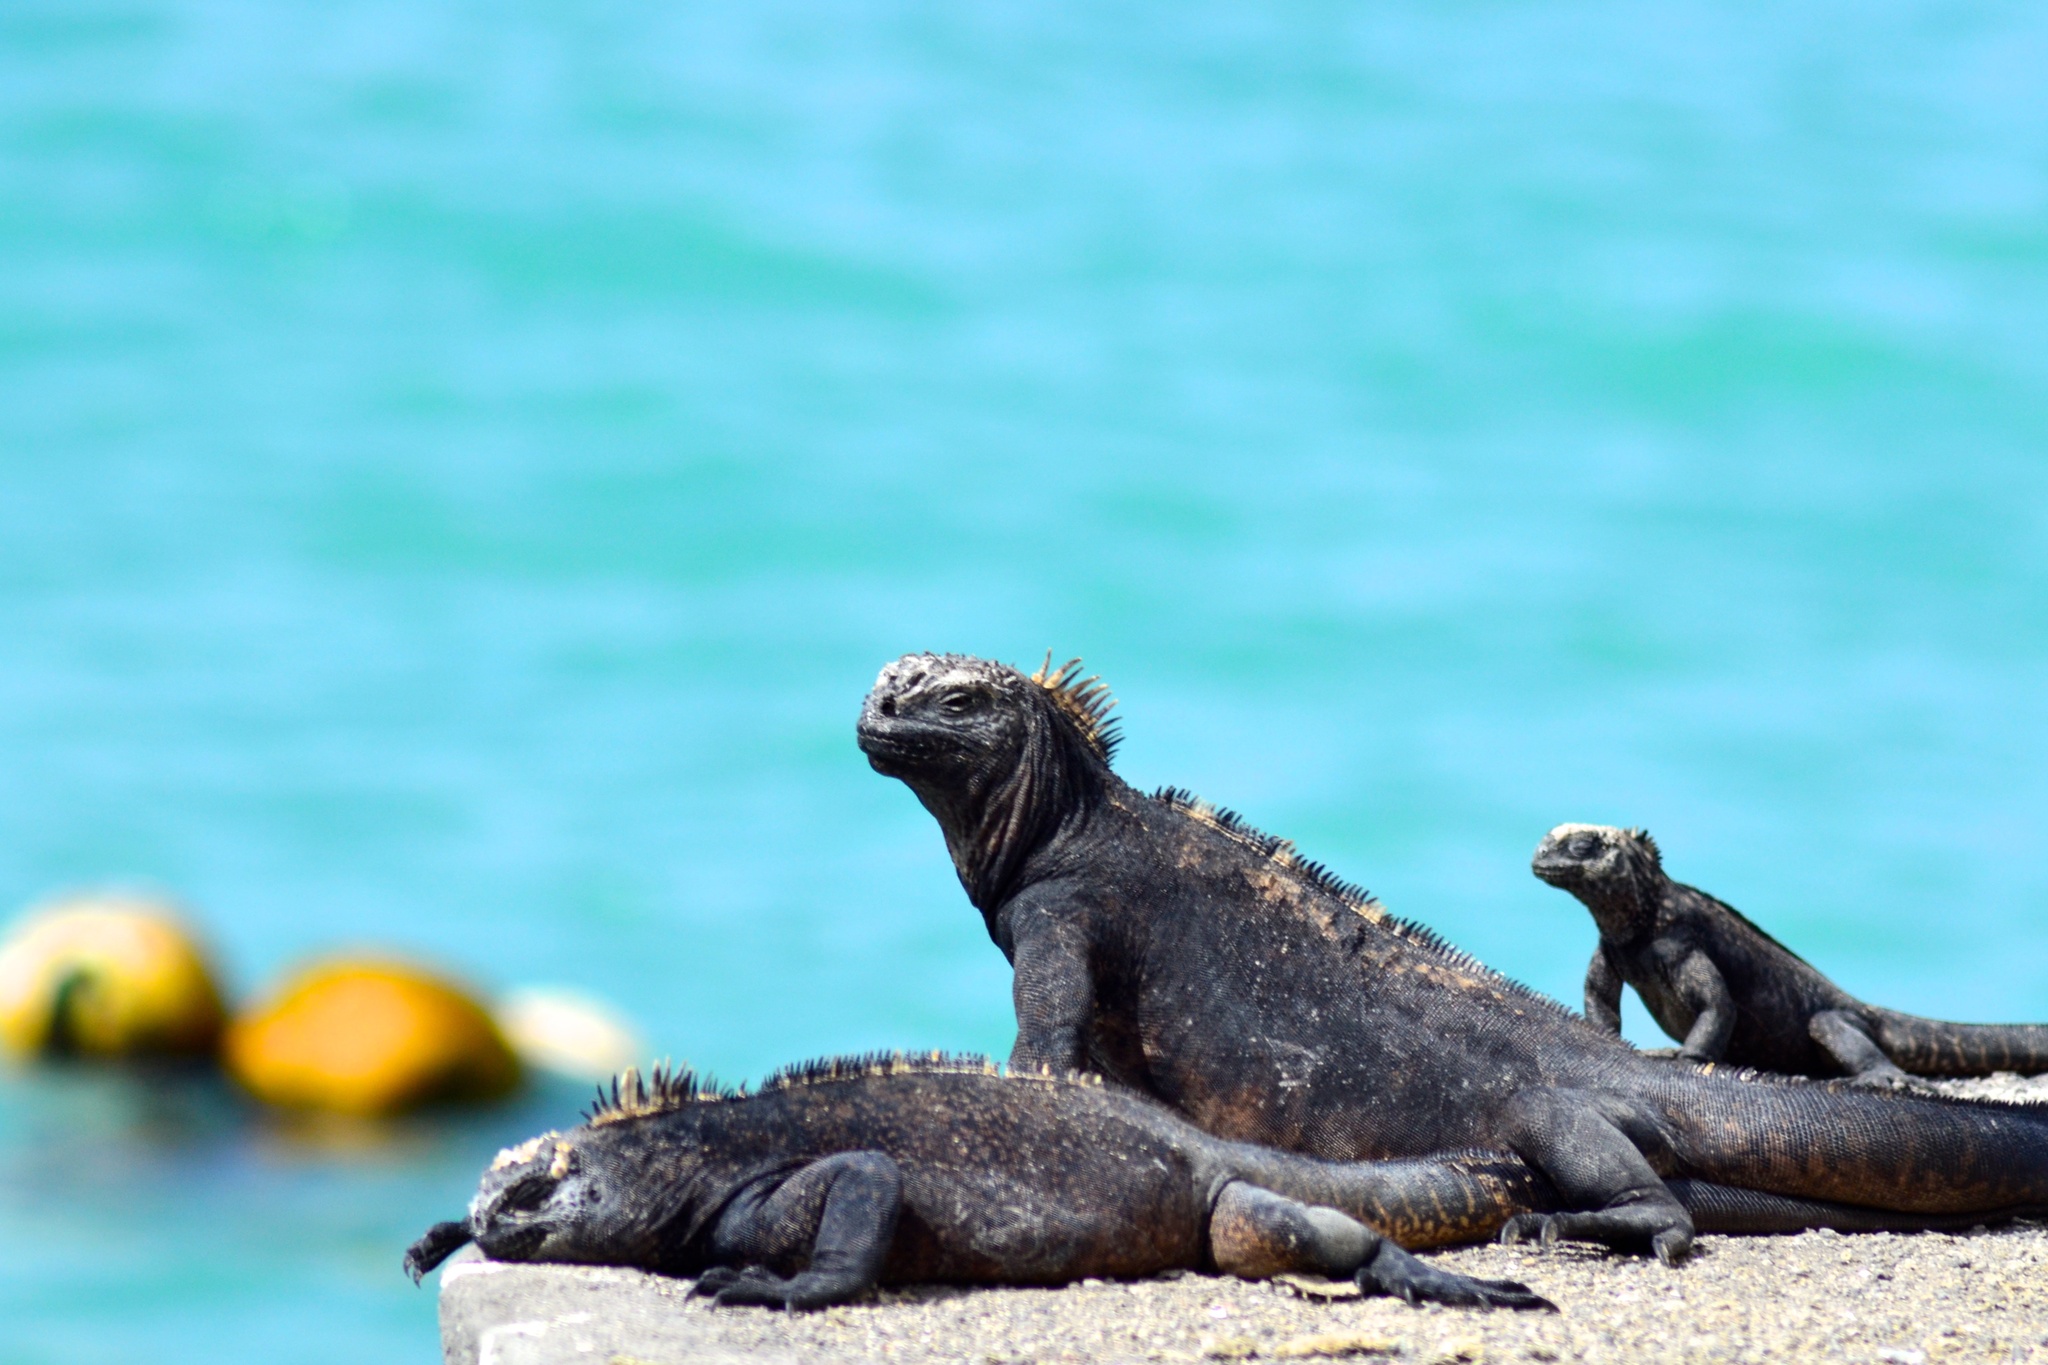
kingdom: Animalia
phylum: Chordata
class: Squamata
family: Iguanidae
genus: Amblyrhynchus
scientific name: Amblyrhynchus cristatus
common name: Marine iguana
